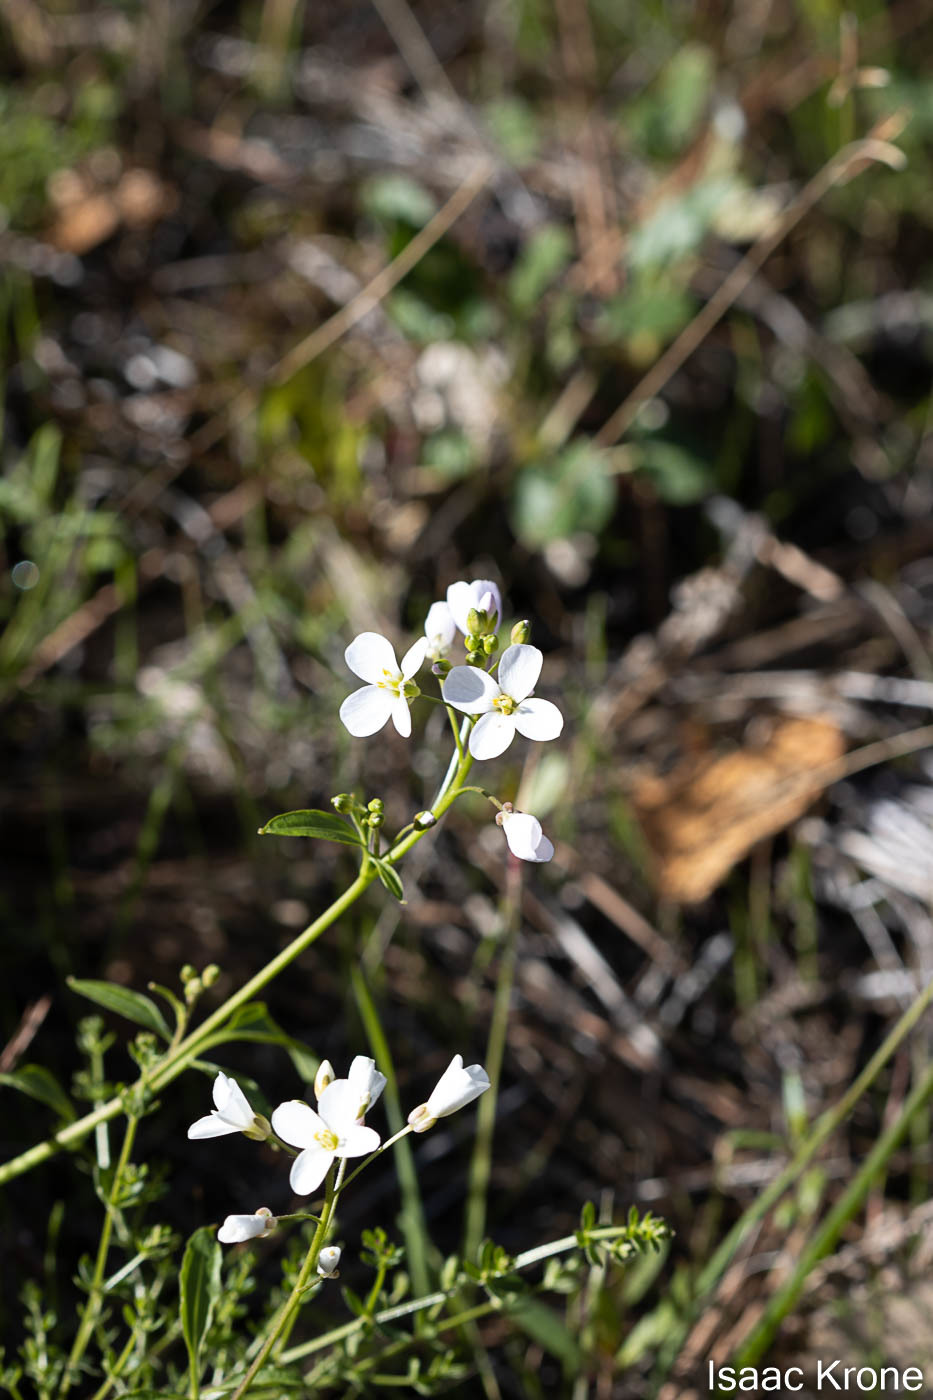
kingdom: Plantae
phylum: Tracheophyta
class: Magnoliopsida
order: Brassicales
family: Brassicaceae
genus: Cardamine
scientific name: Cardamine californica
